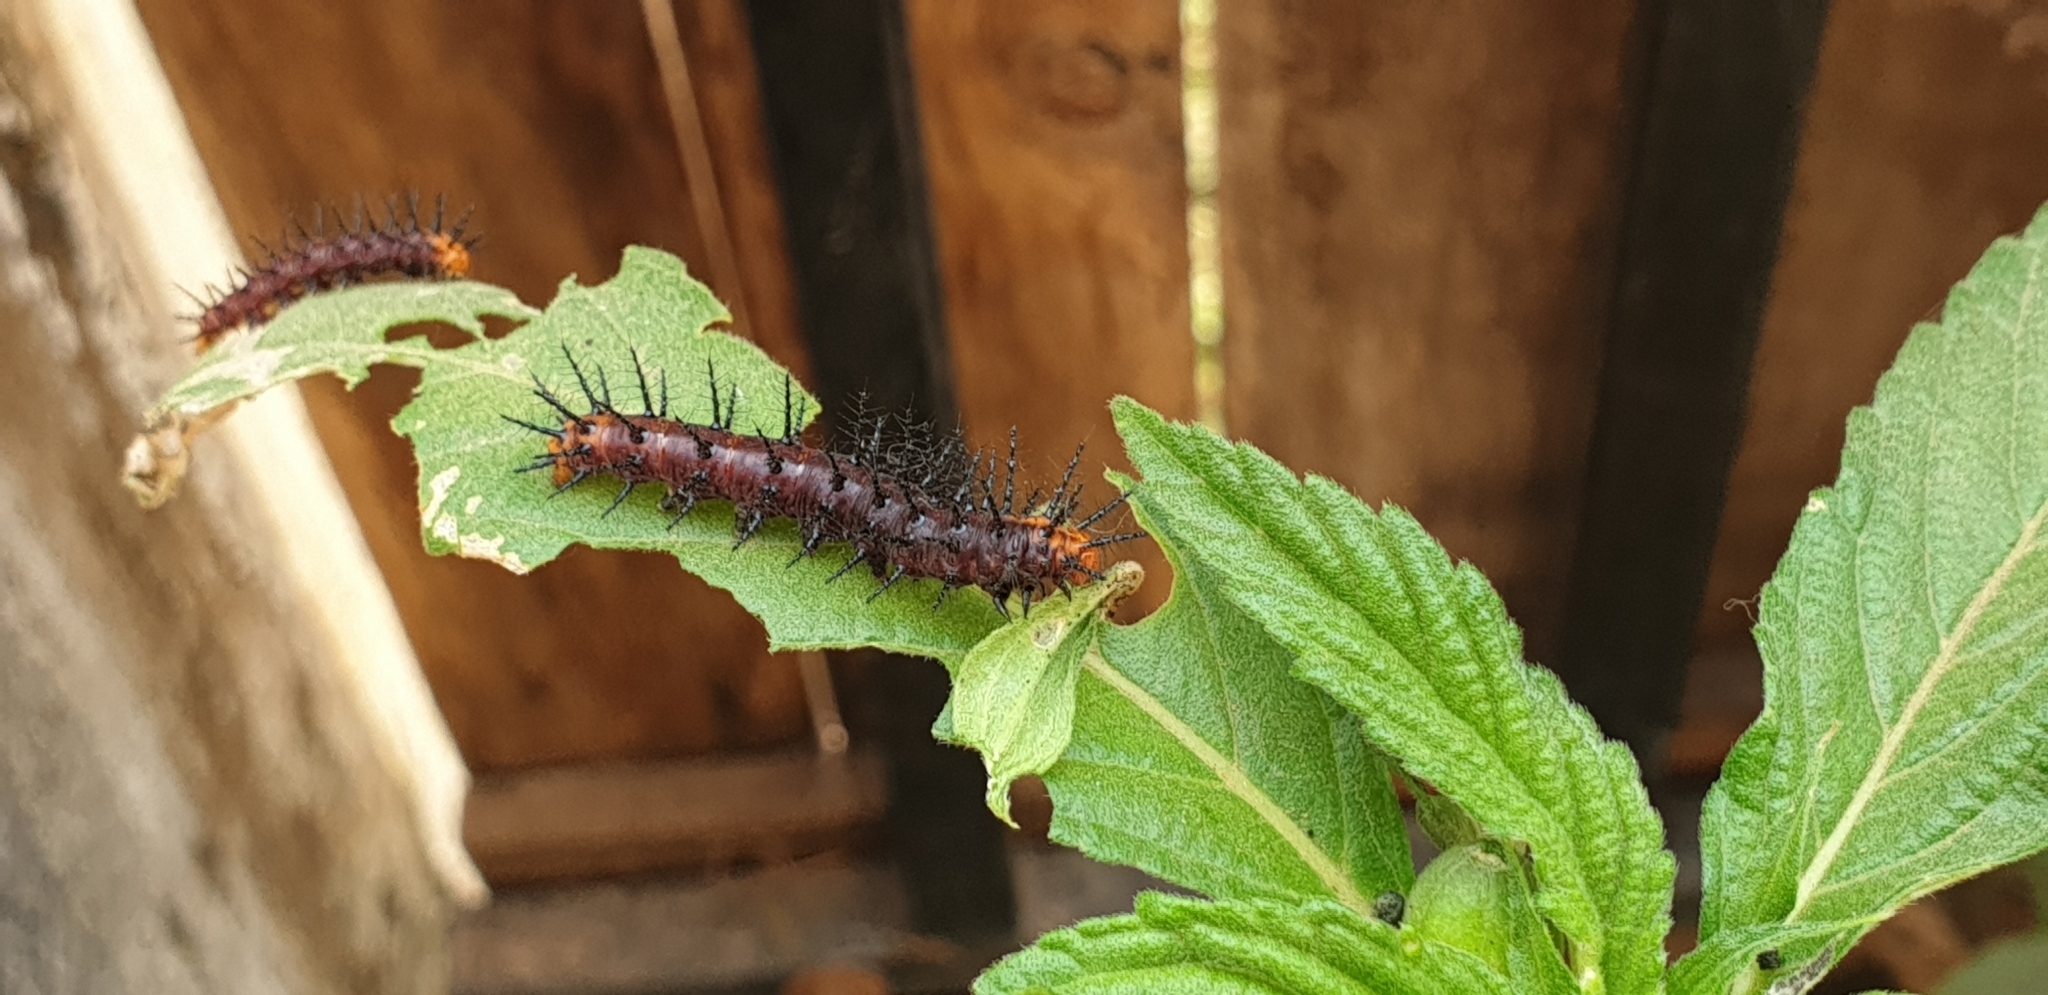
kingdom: Animalia
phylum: Arthropoda
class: Insecta
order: Lepidoptera
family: Nymphalidae
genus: Acraea
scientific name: Acraea terpsicore
